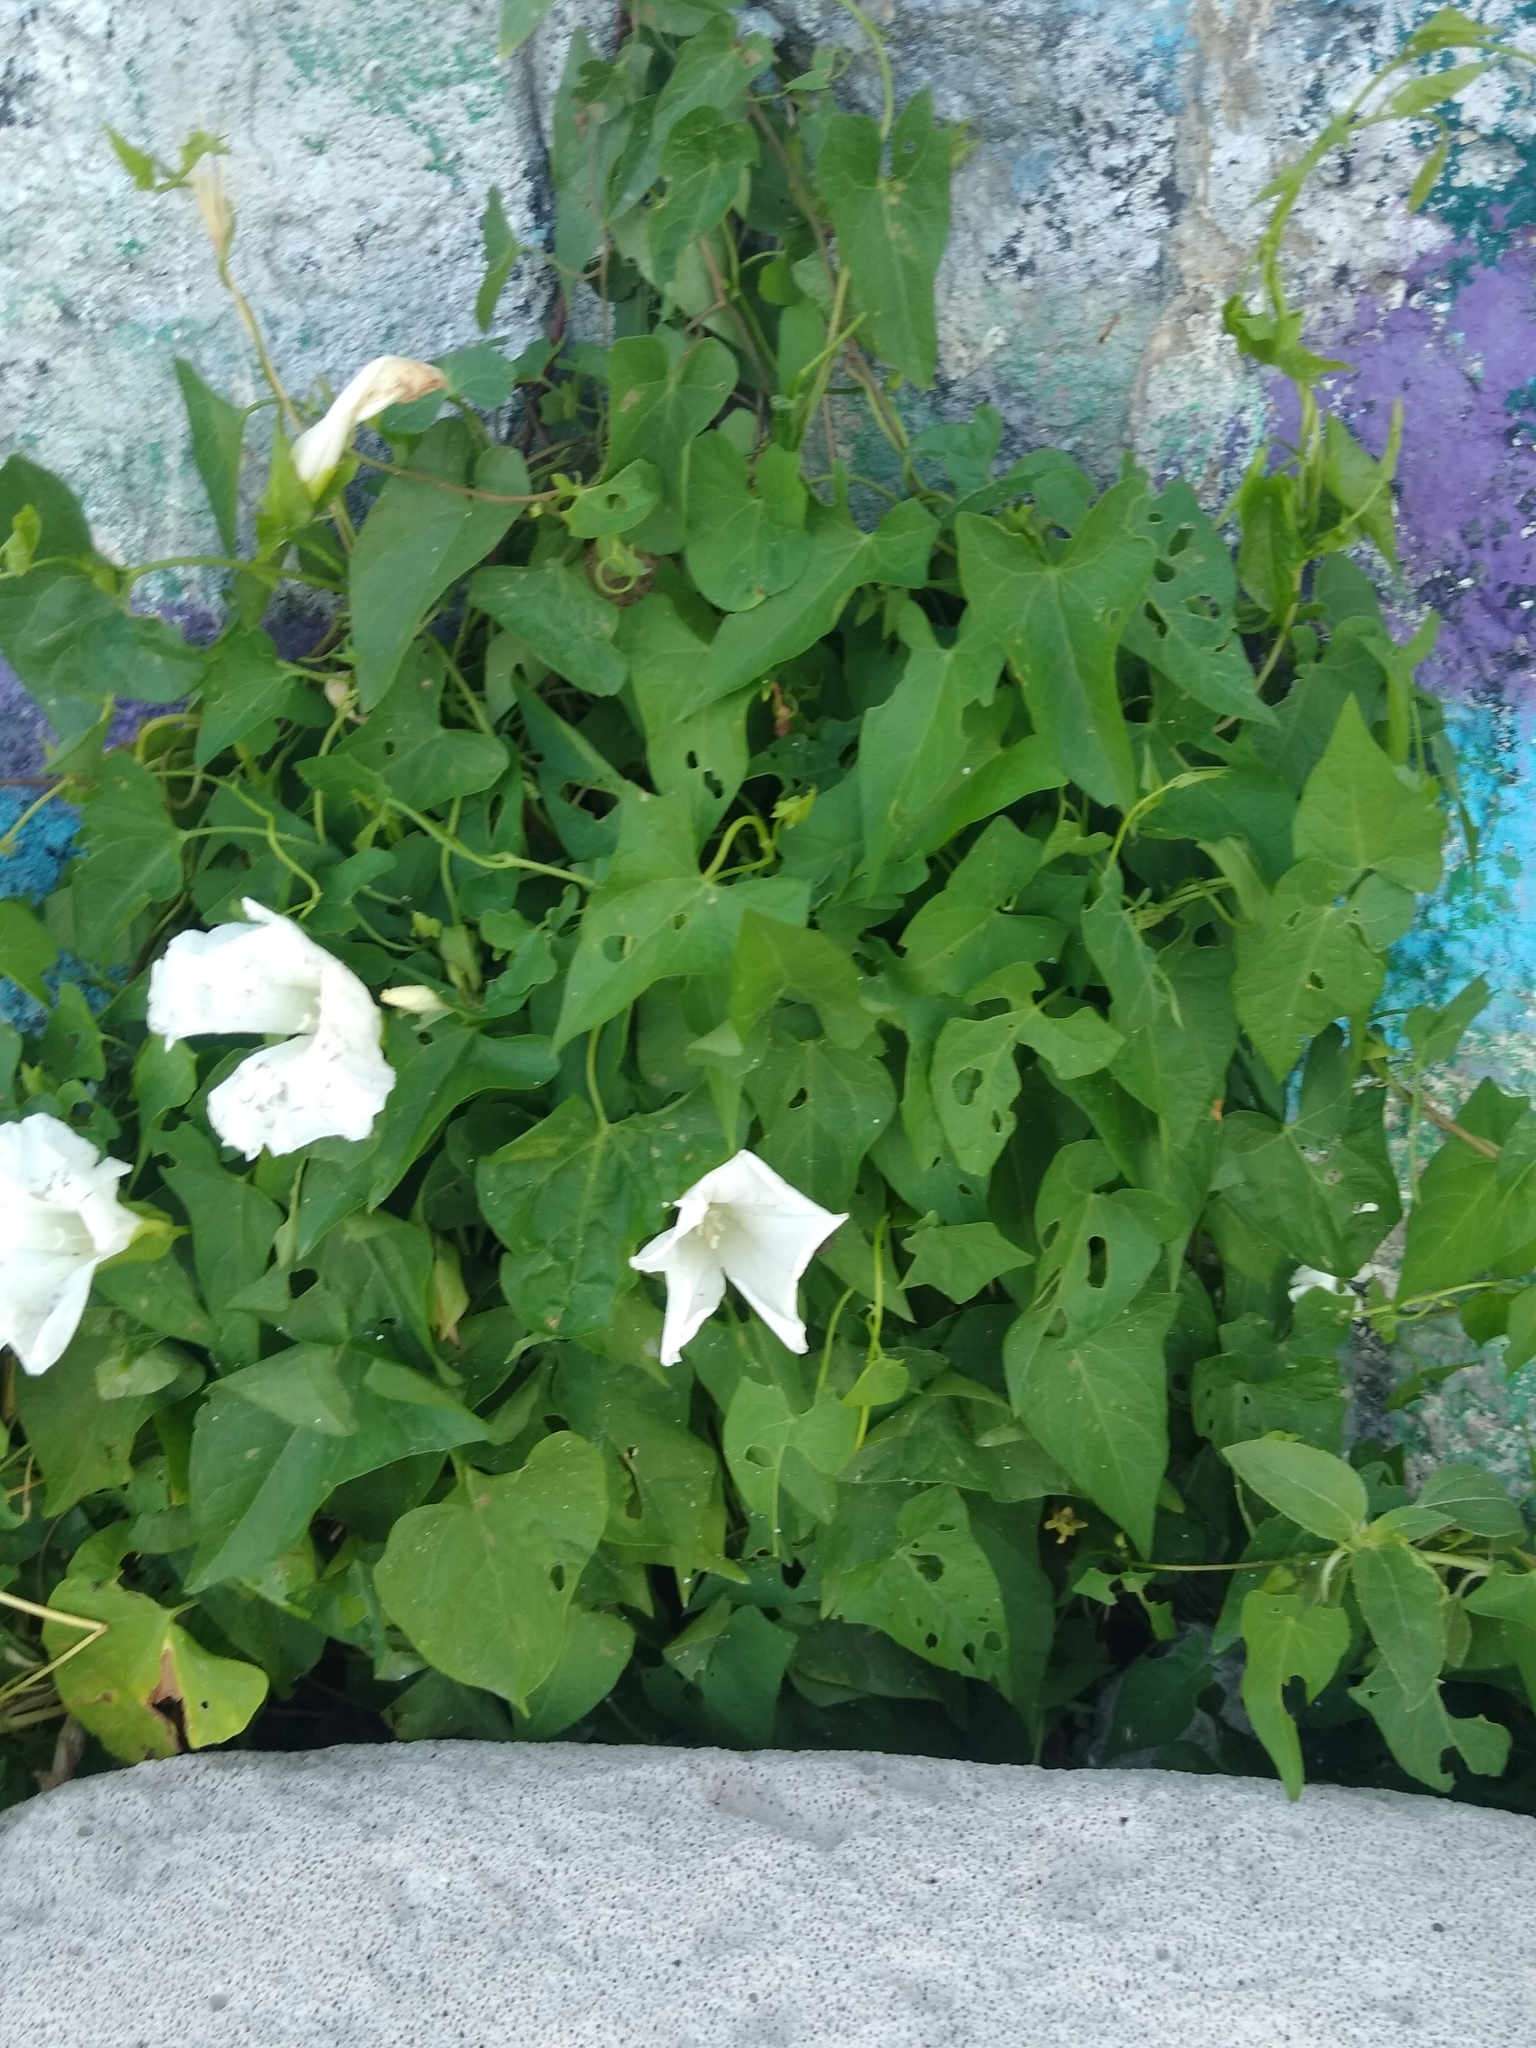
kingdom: Plantae
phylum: Tracheophyta
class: Magnoliopsida
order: Solanales
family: Convolvulaceae
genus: Calystegia
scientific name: Calystegia sepium
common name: Hedge bindweed
